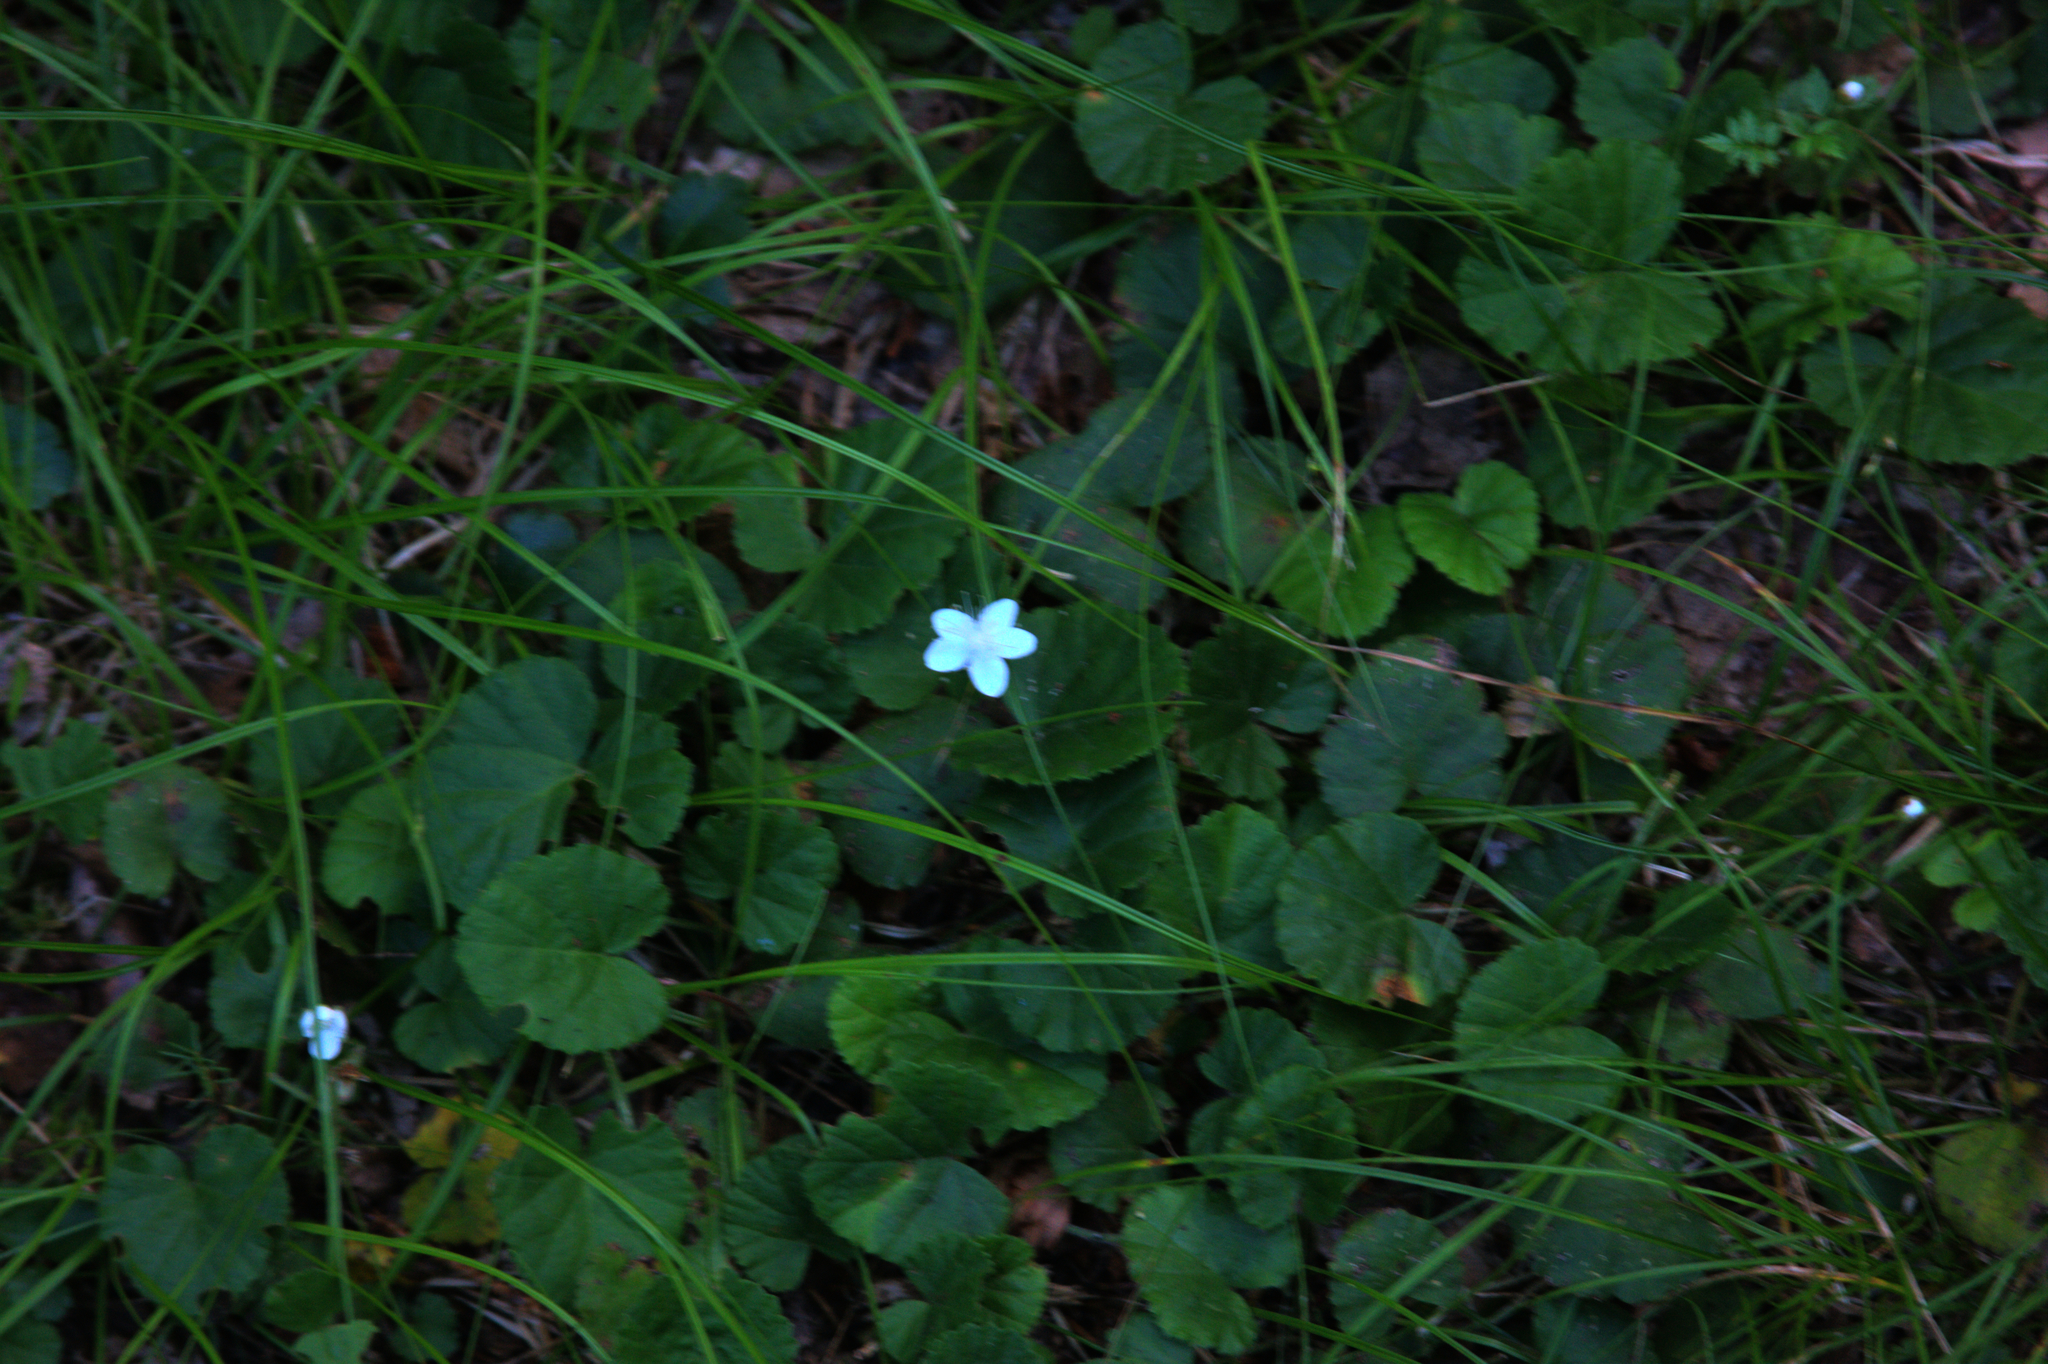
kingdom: Plantae
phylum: Tracheophyta
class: Magnoliopsida
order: Rosales
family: Rosaceae
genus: Dalibarda
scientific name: Dalibarda repens
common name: Dewdrop
